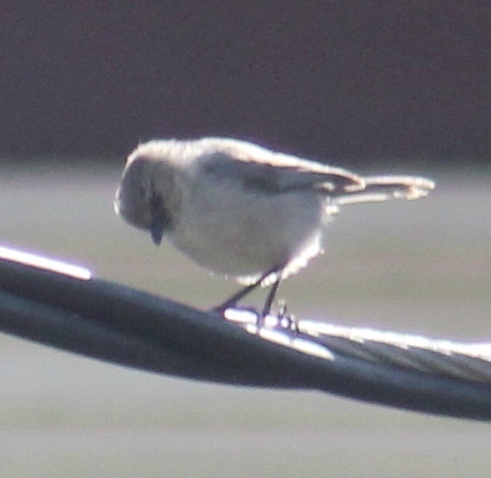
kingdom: Animalia
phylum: Chordata
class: Aves
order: Passeriformes
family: Aegithalidae
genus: Psaltriparus
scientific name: Psaltriparus minimus
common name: American bushtit
